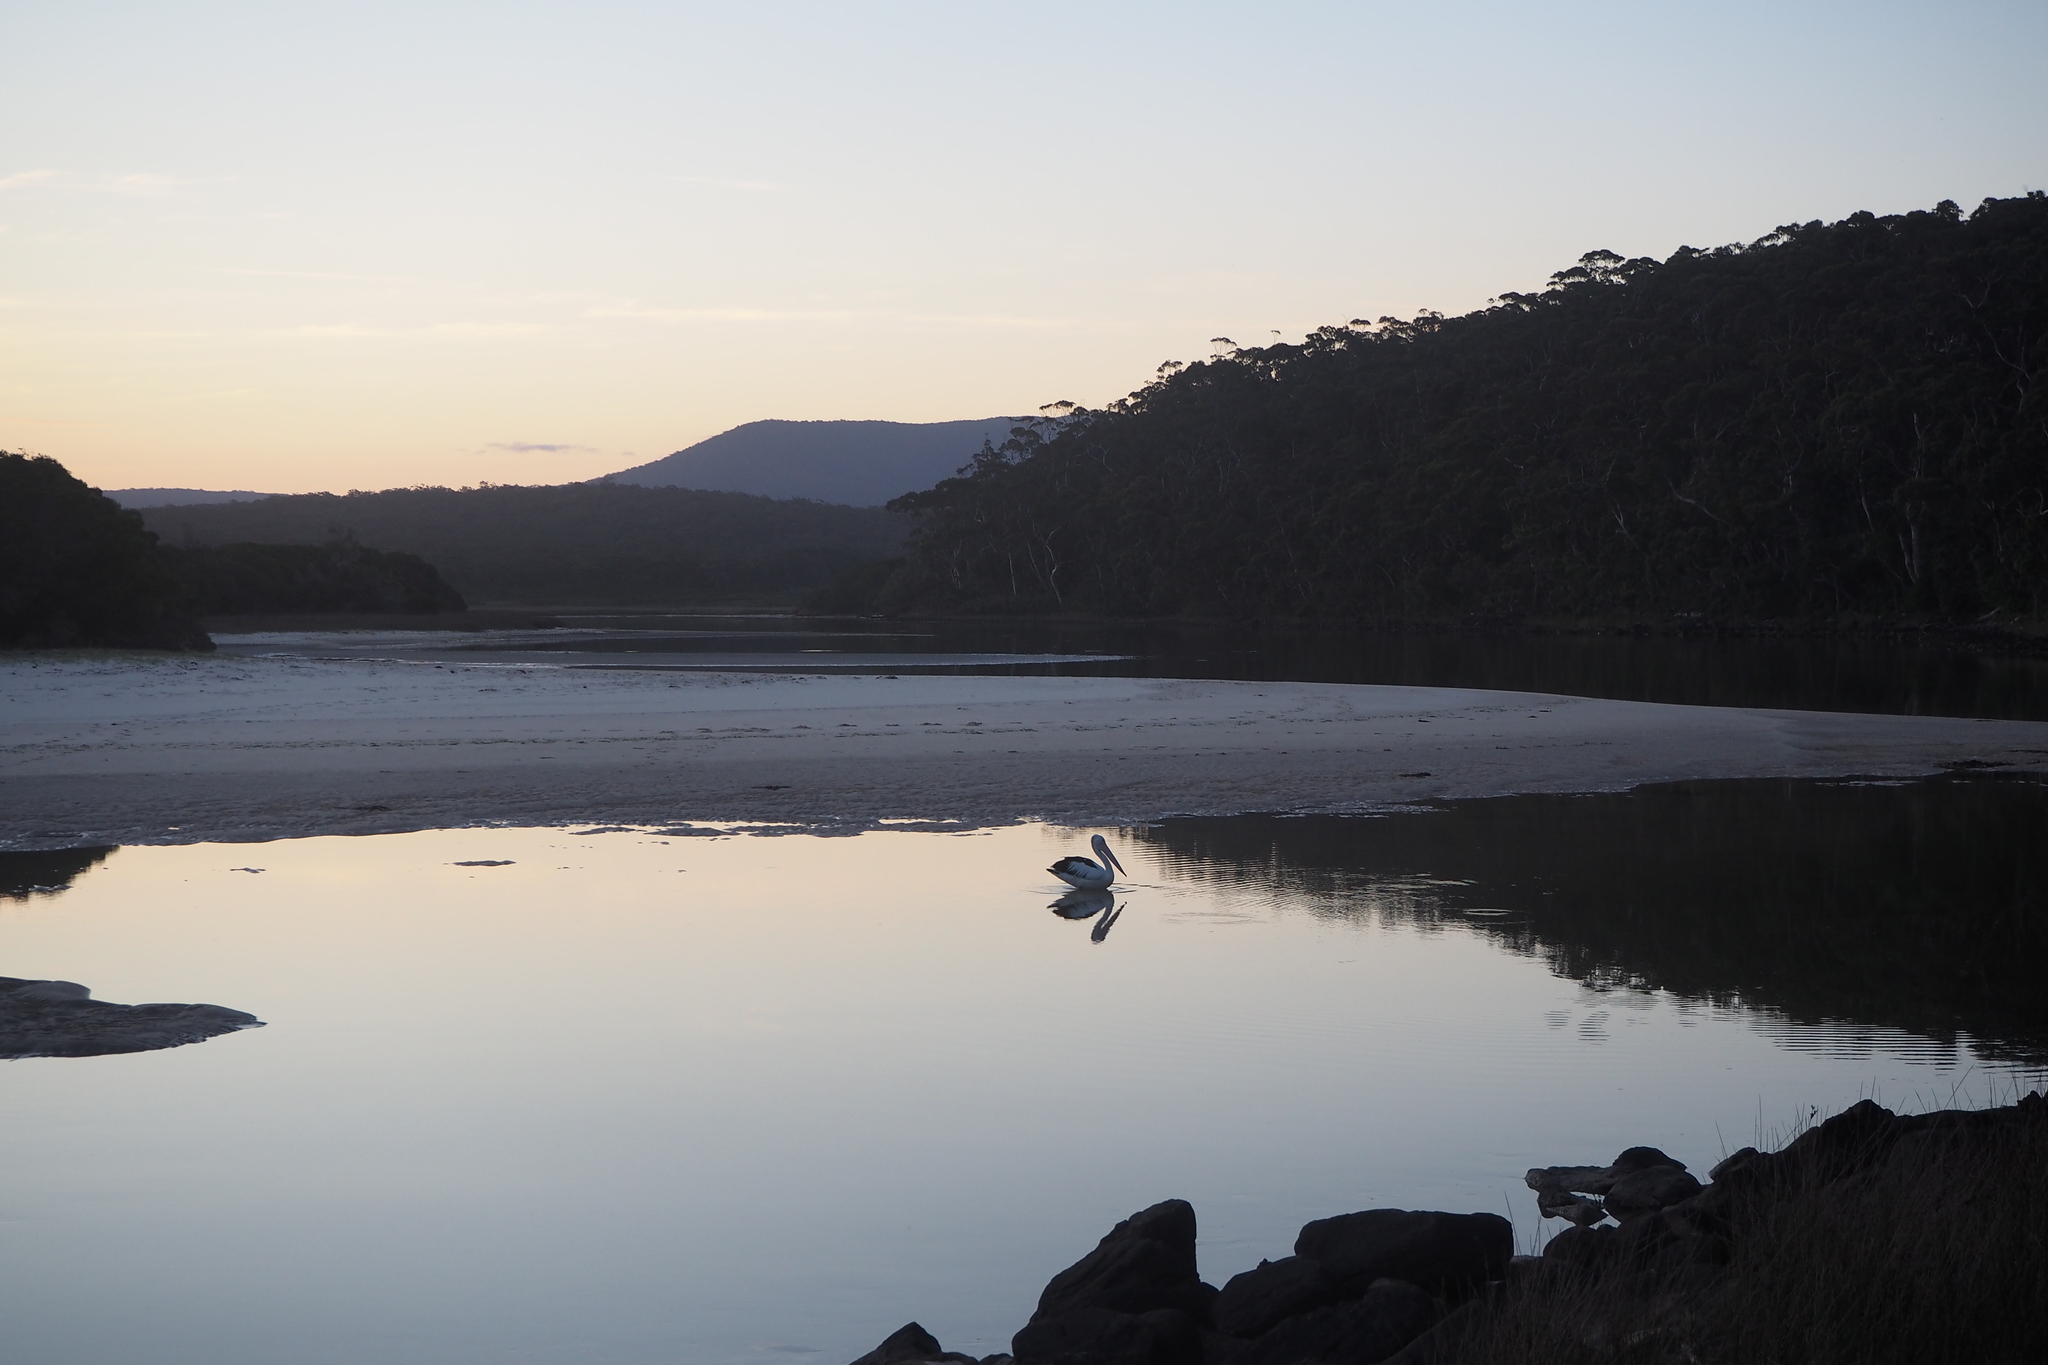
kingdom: Animalia
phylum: Chordata
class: Aves
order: Pelecaniformes
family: Pelecanidae
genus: Pelecanus
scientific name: Pelecanus conspicillatus
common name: Australian pelican
